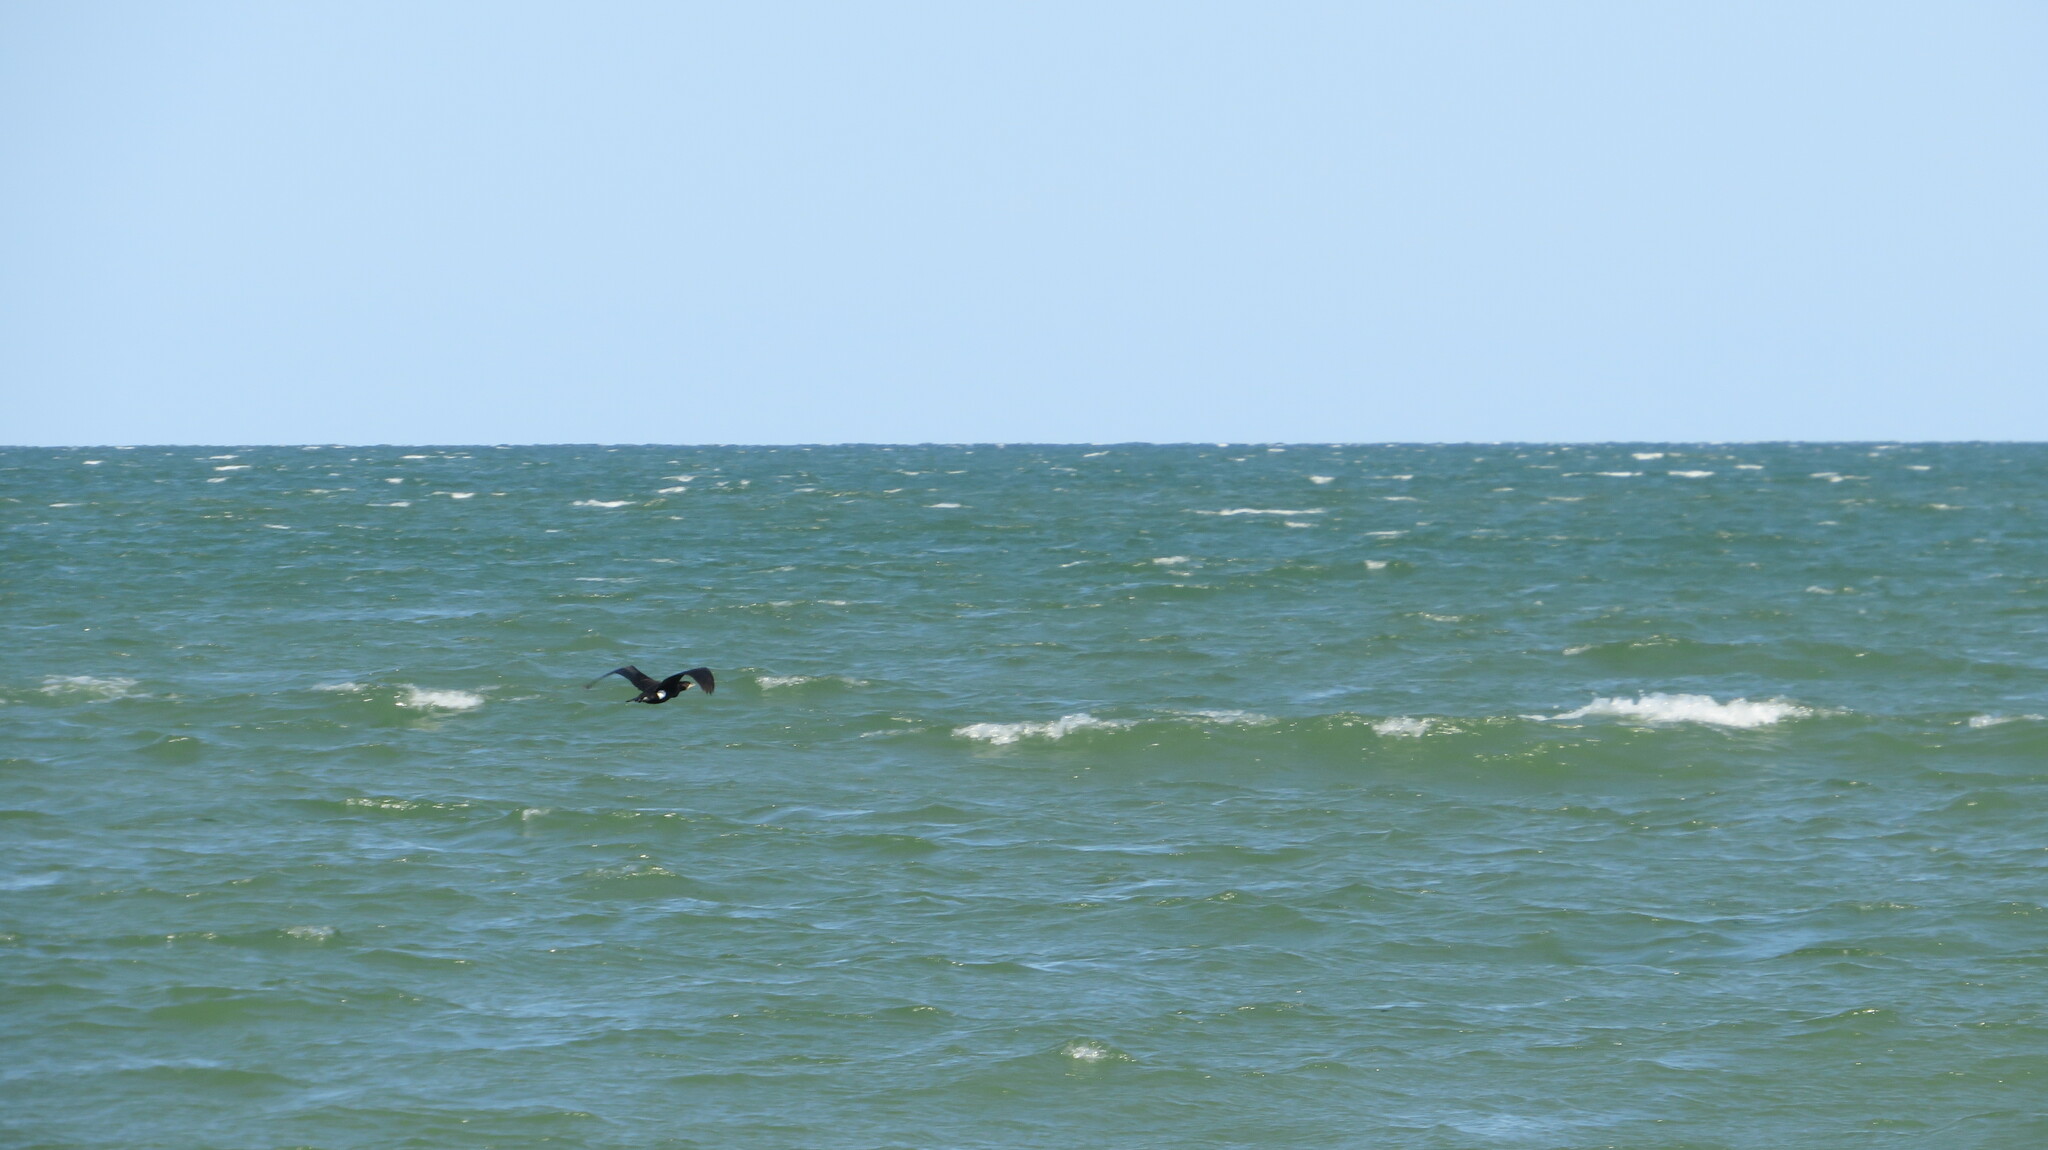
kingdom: Animalia
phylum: Chordata
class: Aves
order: Suliformes
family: Phalacrocoracidae
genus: Phalacrocorax
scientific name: Phalacrocorax carbo
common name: Great cormorant
